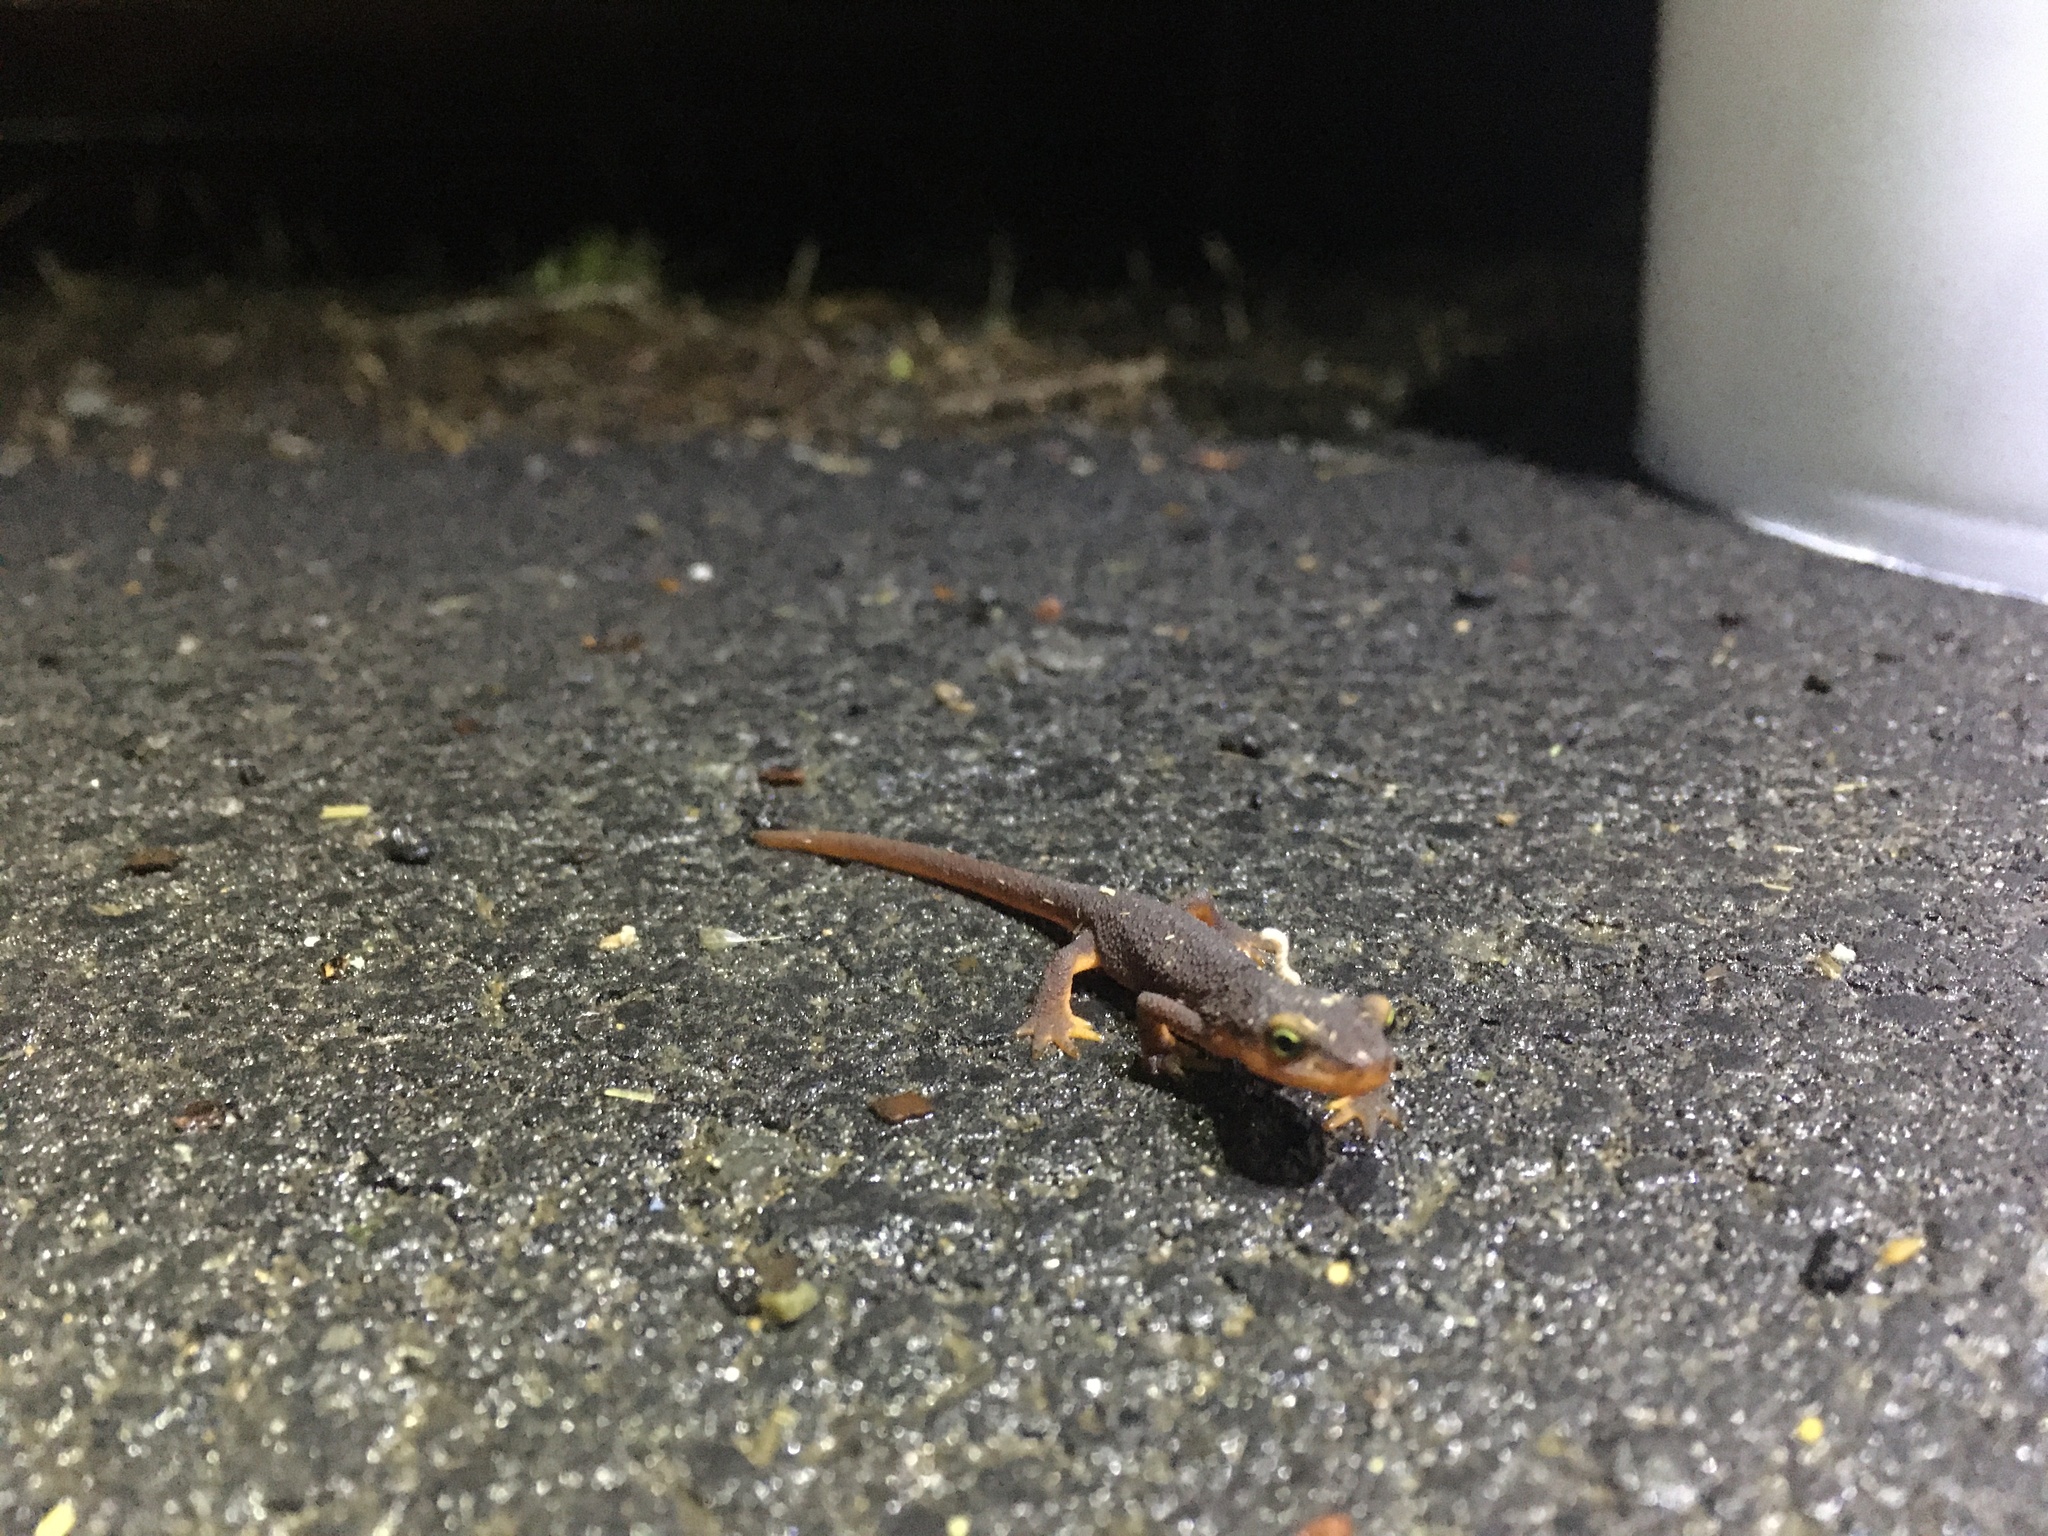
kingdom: Animalia
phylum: Chordata
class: Amphibia
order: Caudata
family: Salamandridae
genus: Taricha
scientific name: Taricha torosa
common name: California newt
